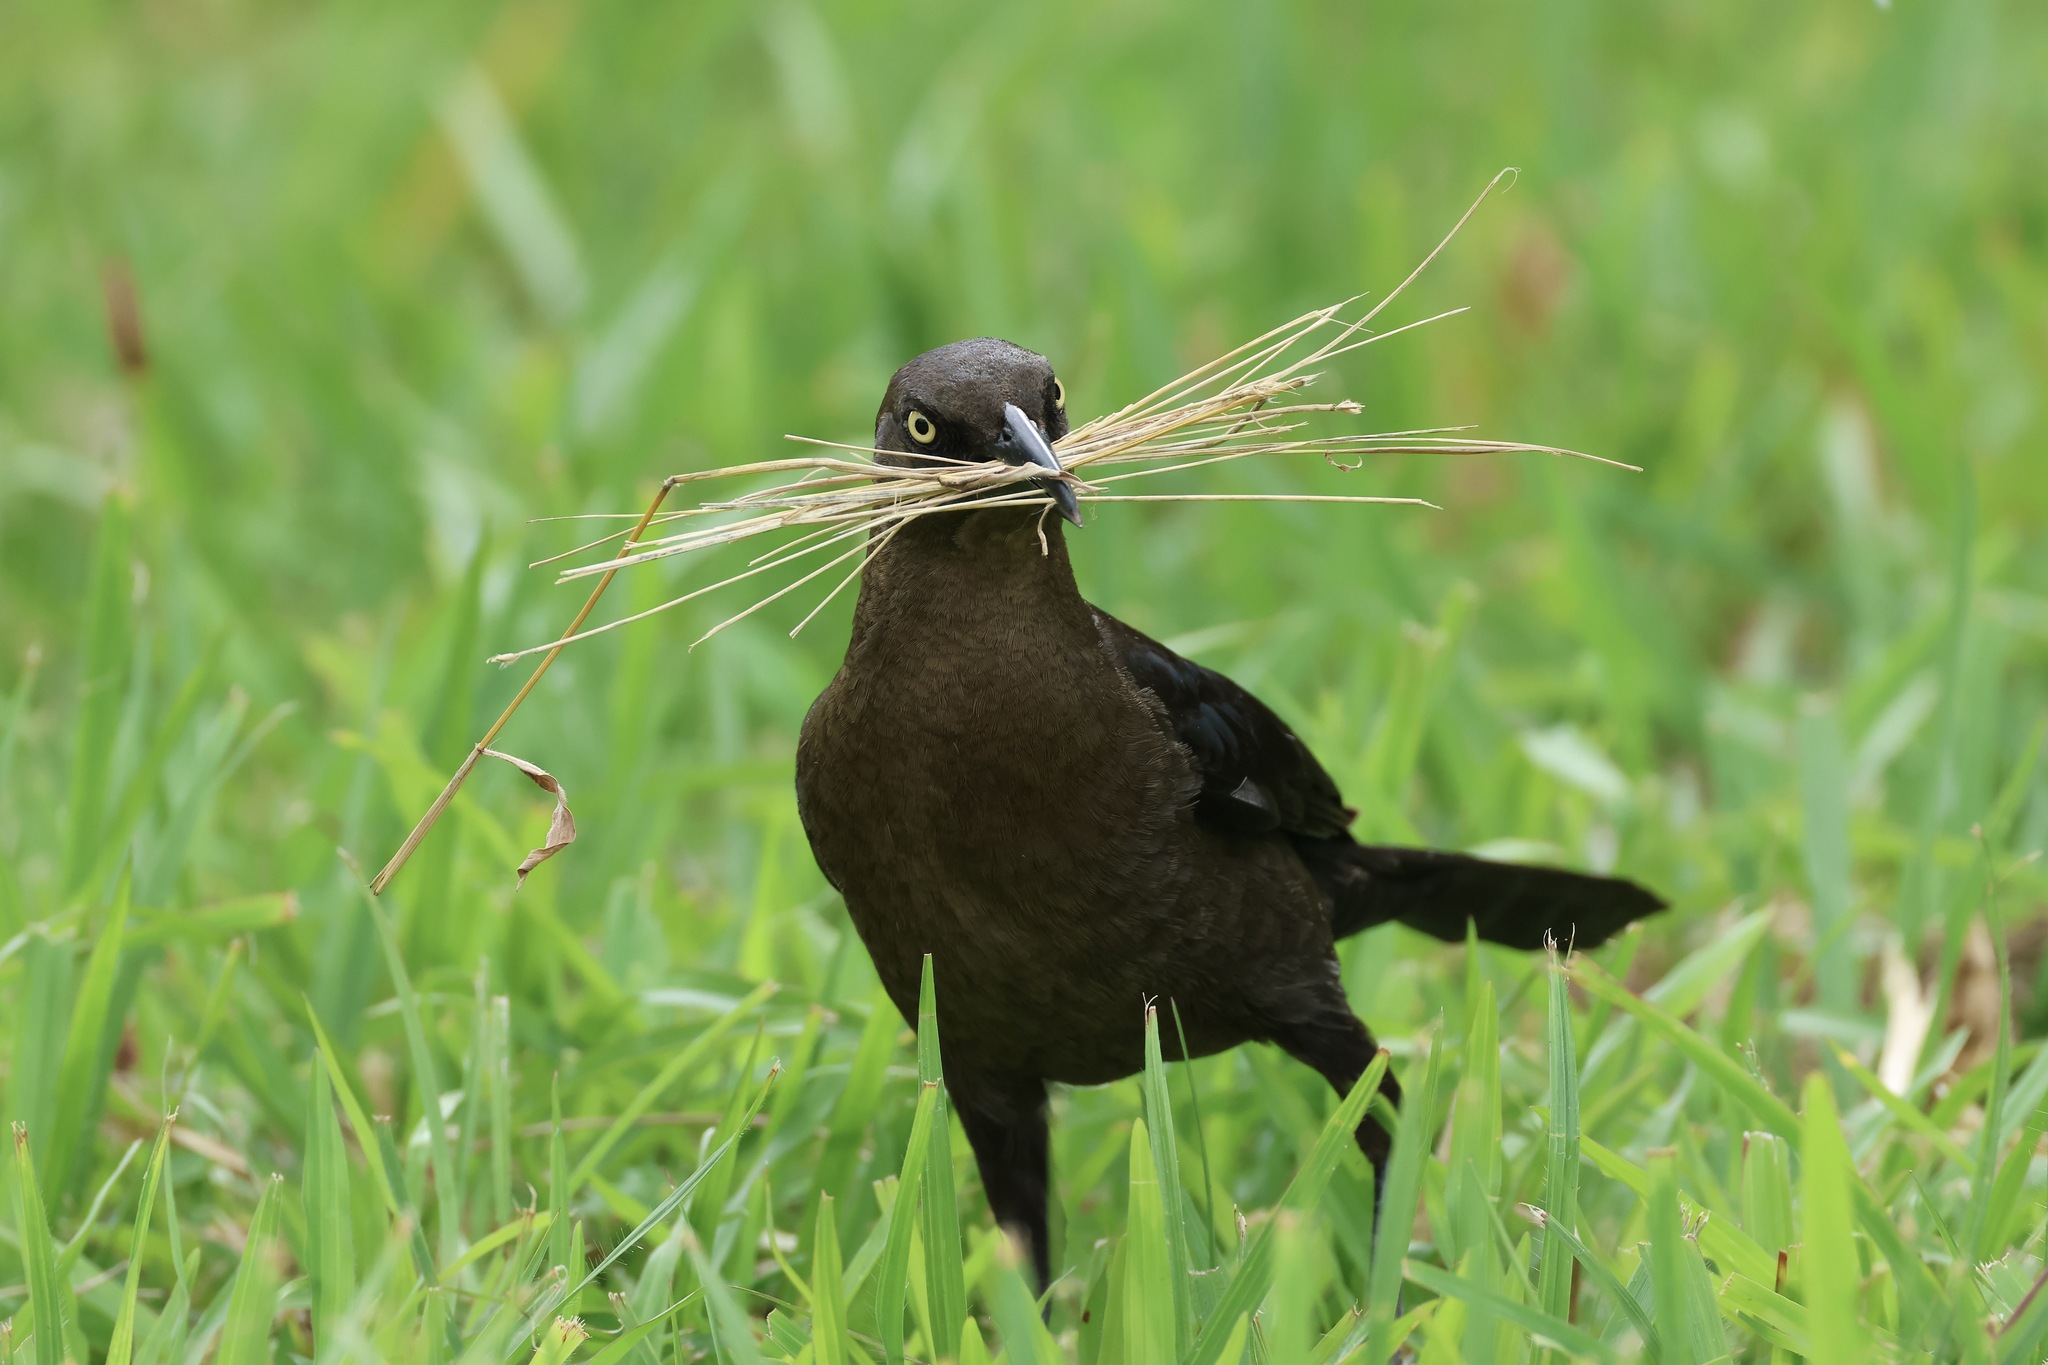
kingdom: Animalia
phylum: Chordata
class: Aves
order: Passeriformes
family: Icteridae
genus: Quiscalus
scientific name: Quiscalus mexicanus
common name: Great-tailed grackle
